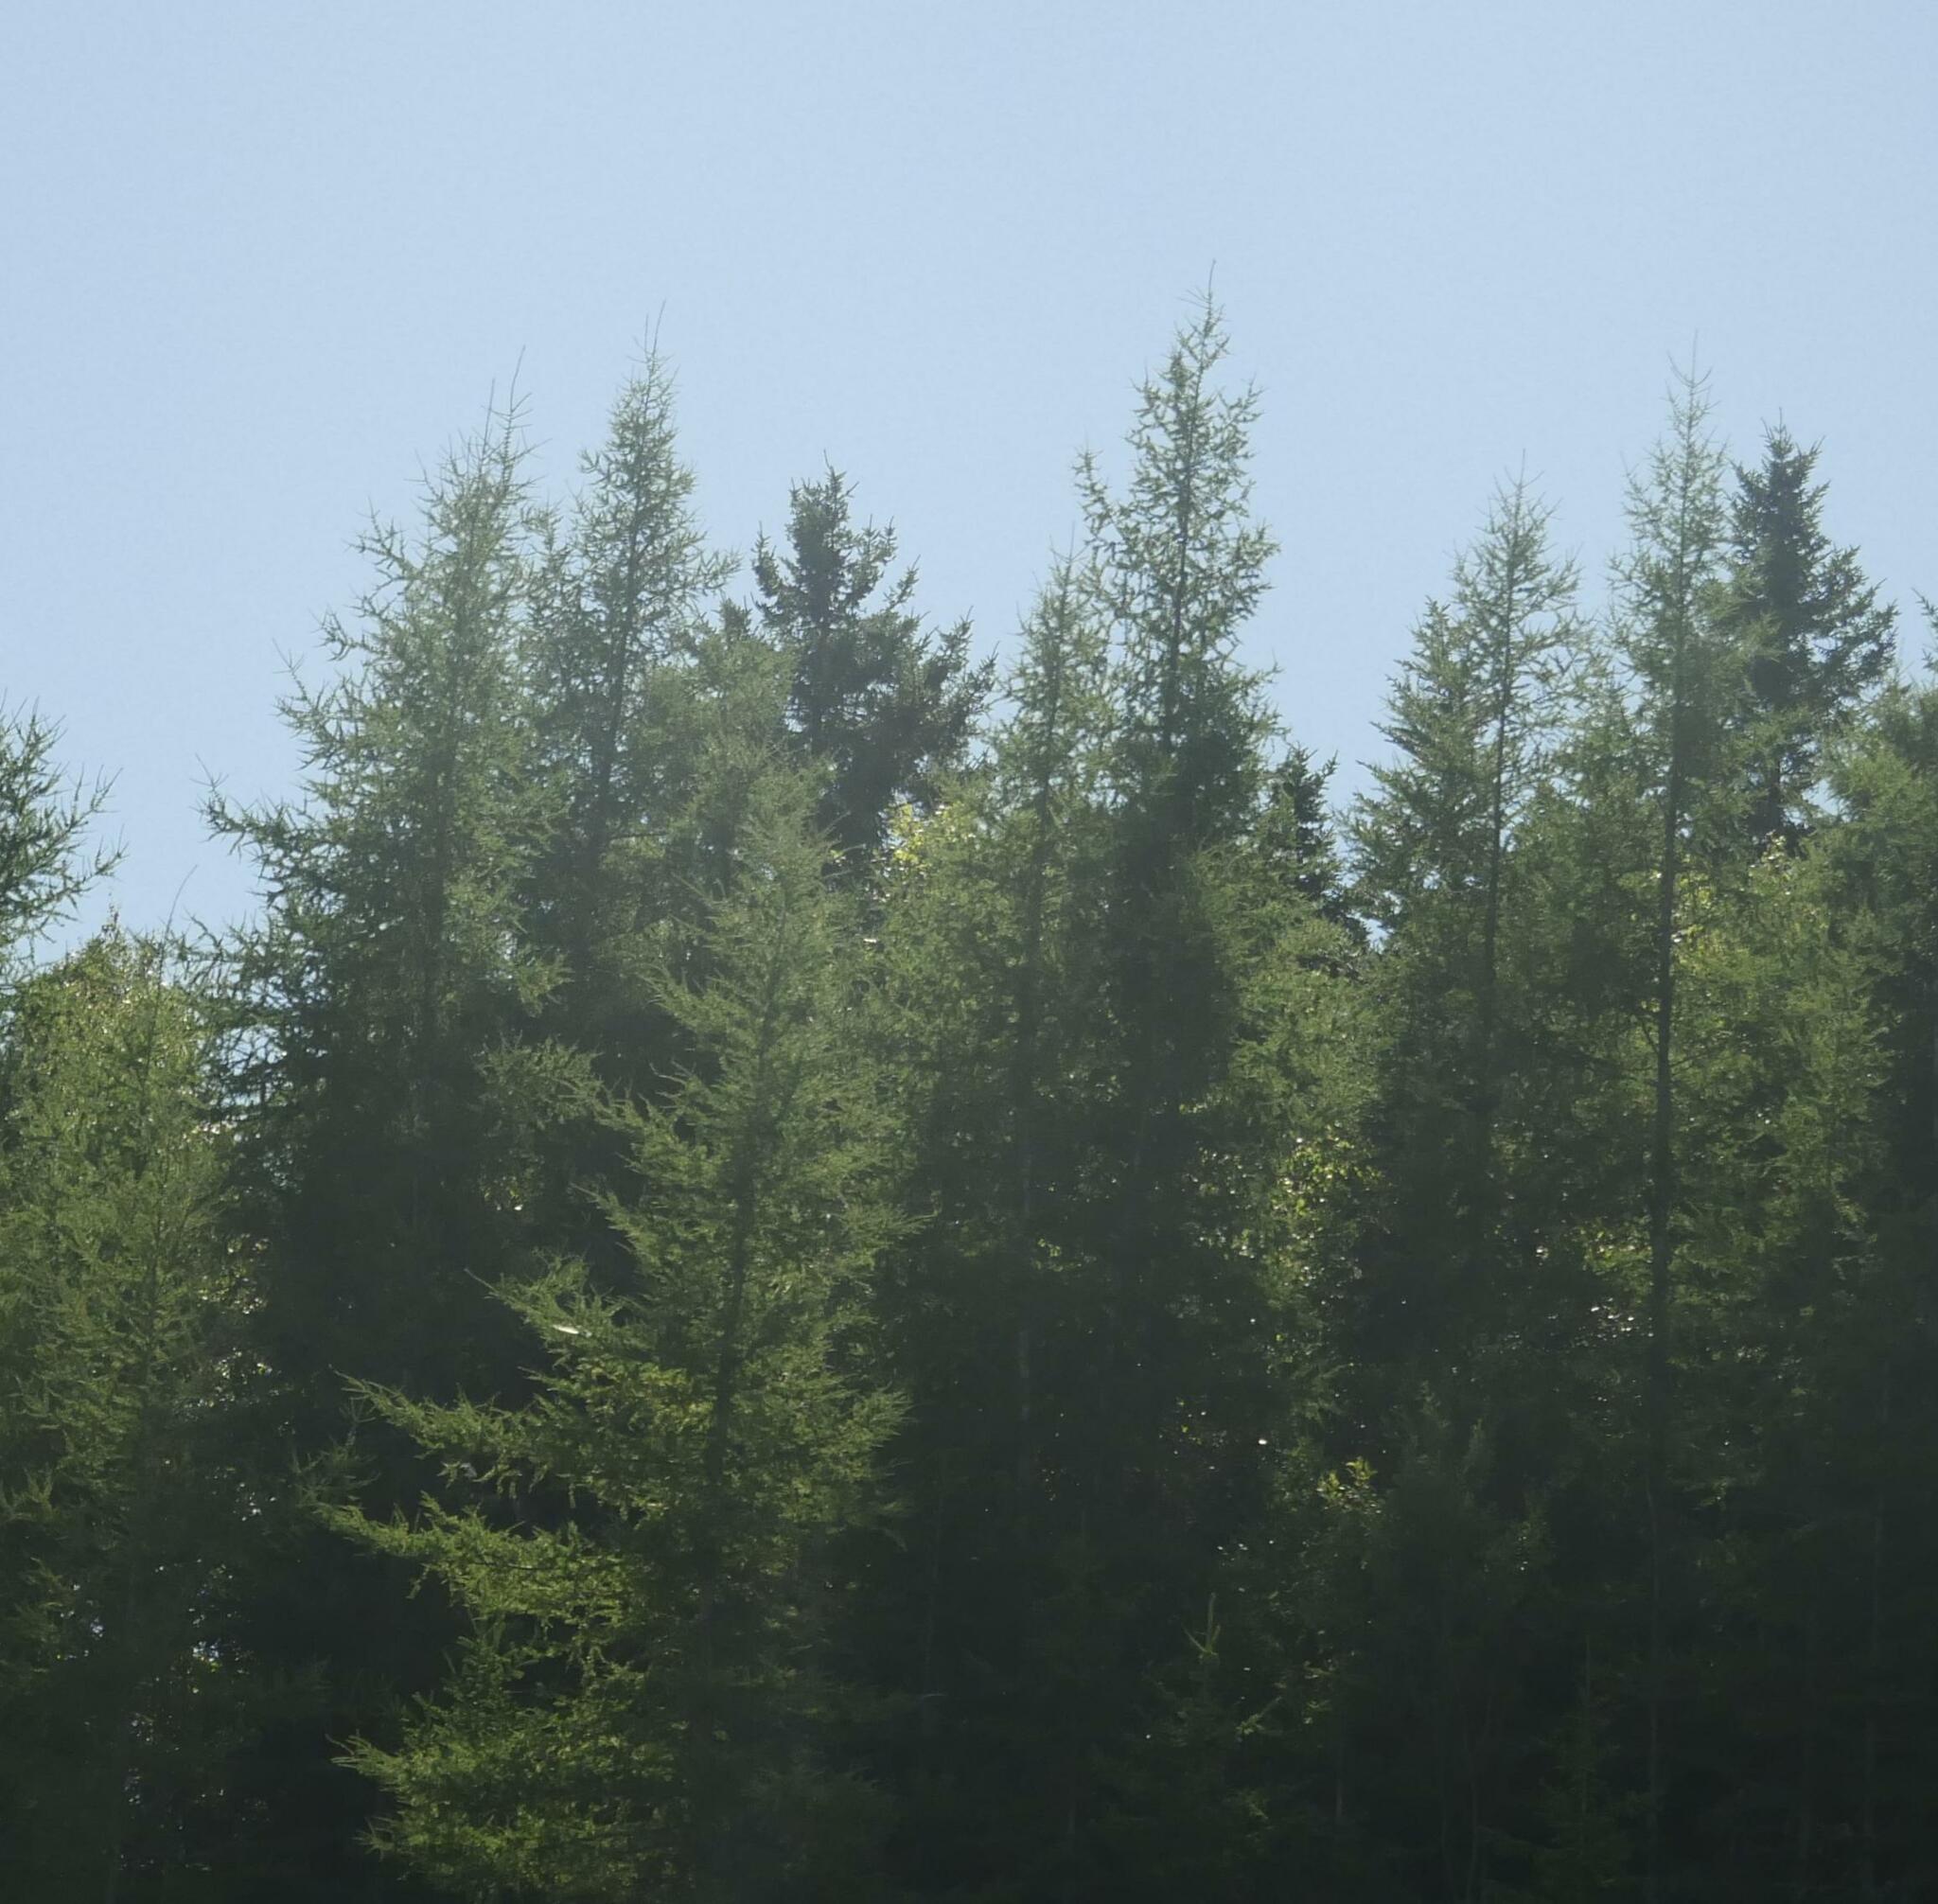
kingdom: Plantae
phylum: Tracheophyta
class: Pinopsida
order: Pinales
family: Pinaceae
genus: Larix
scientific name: Larix laricina
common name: American larch
